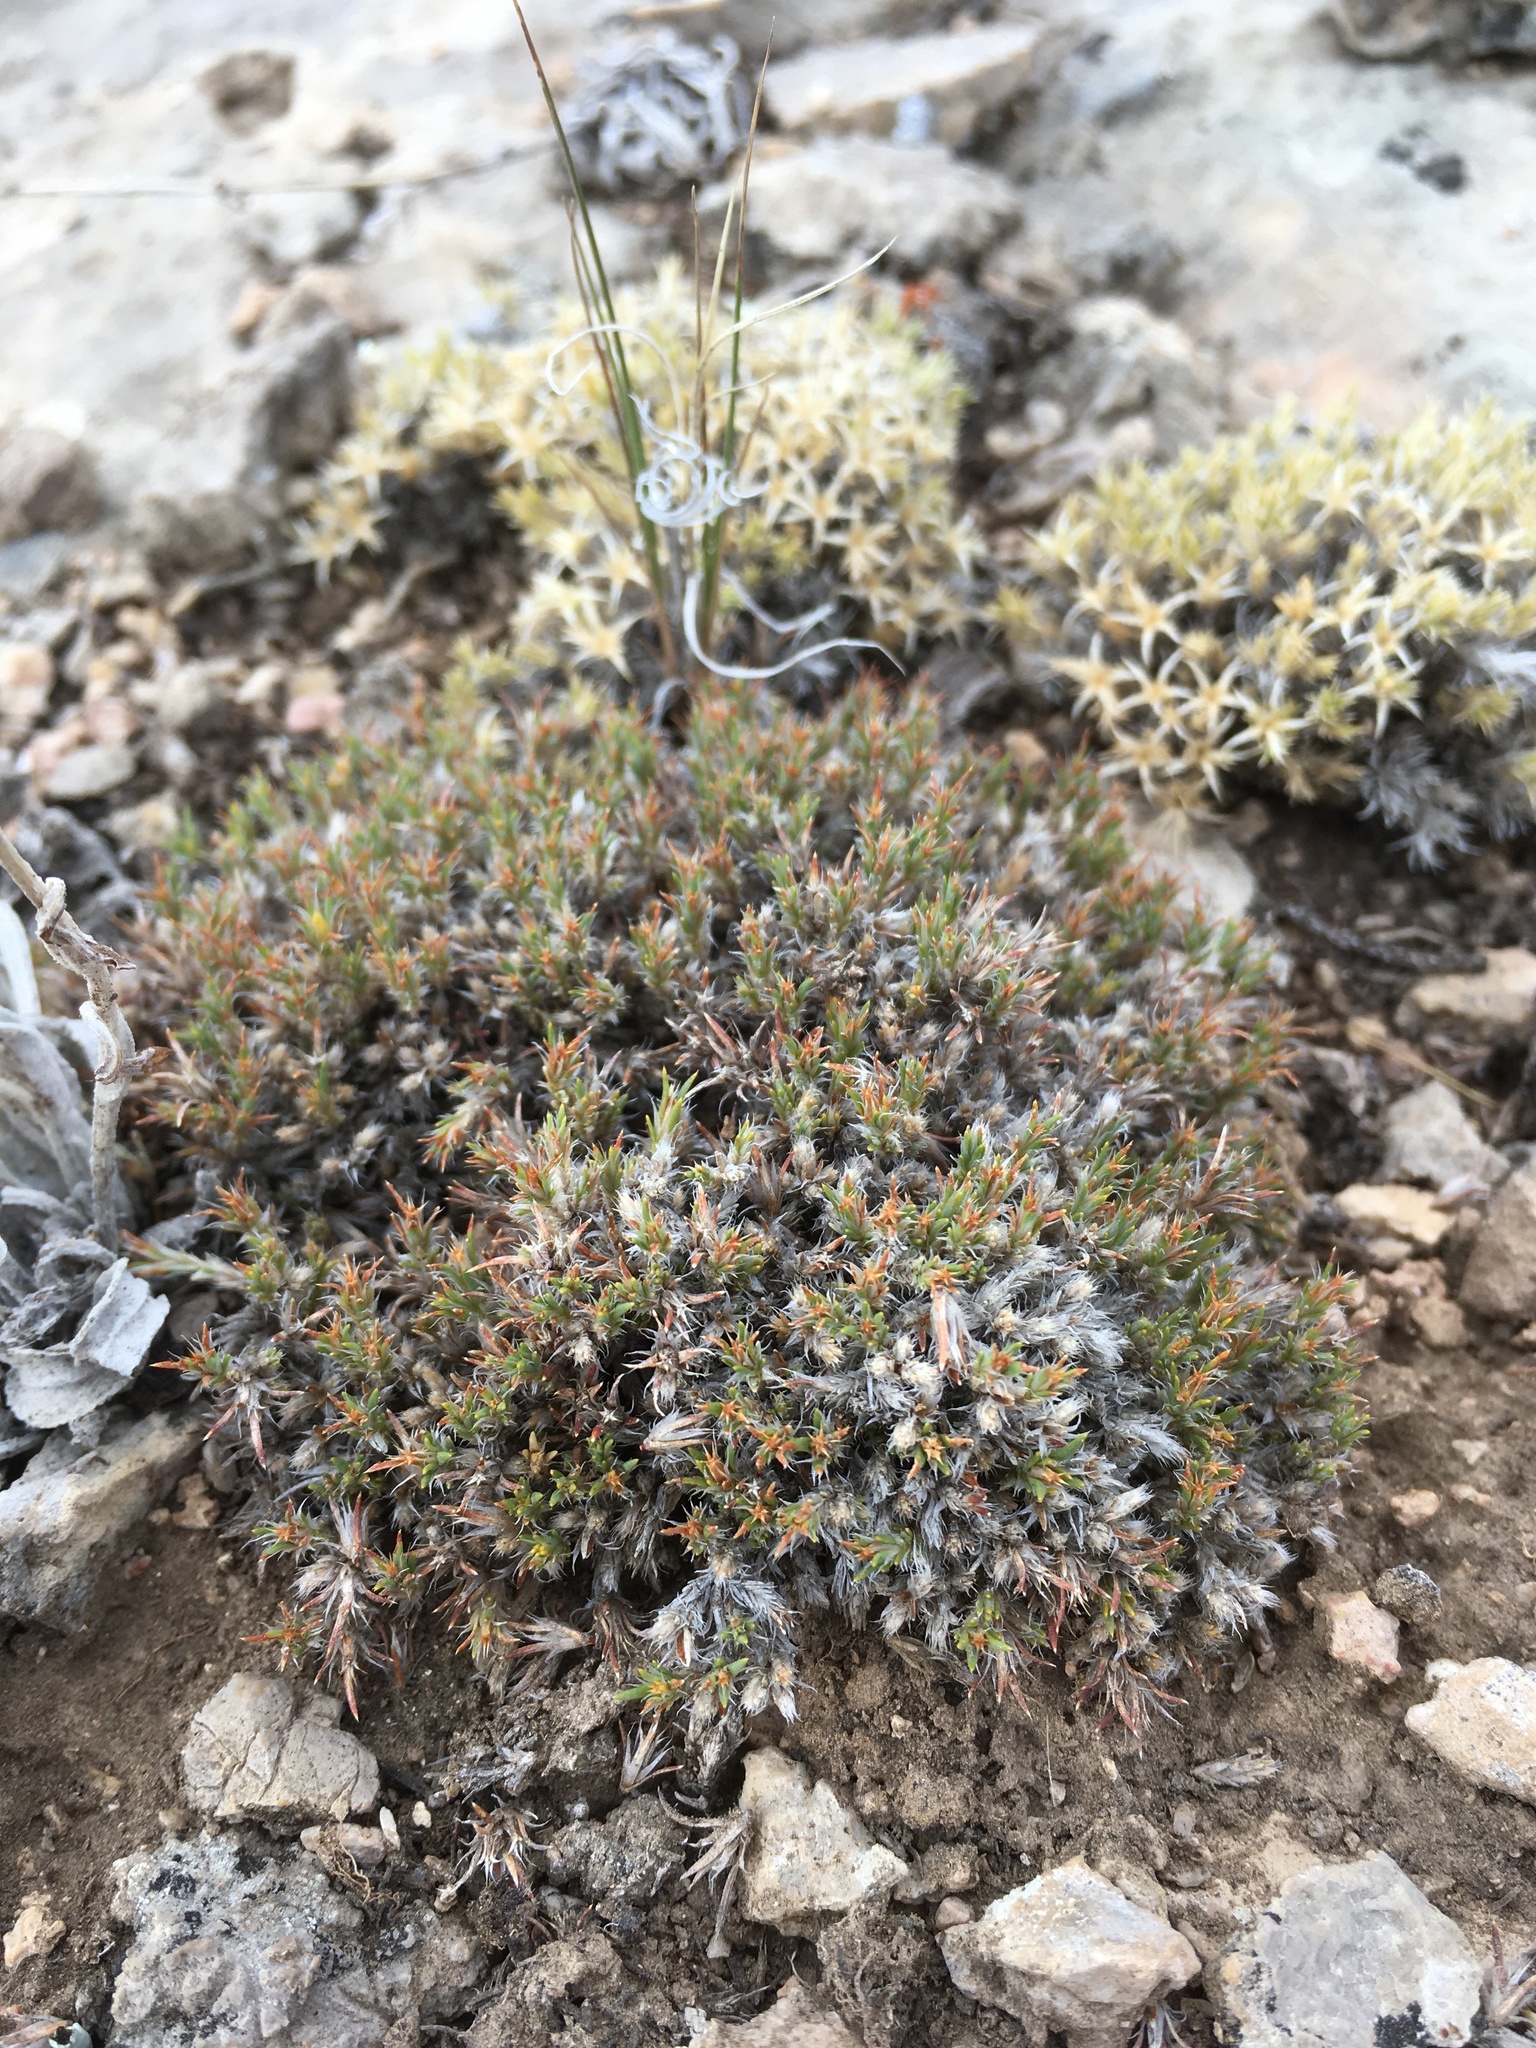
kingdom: Plantae
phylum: Tracheophyta
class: Magnoliopsida
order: Caryophyllales
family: Caryophyllaceae
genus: Paronychia
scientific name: Paronychia sessiliflora
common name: Creeping nailwort
